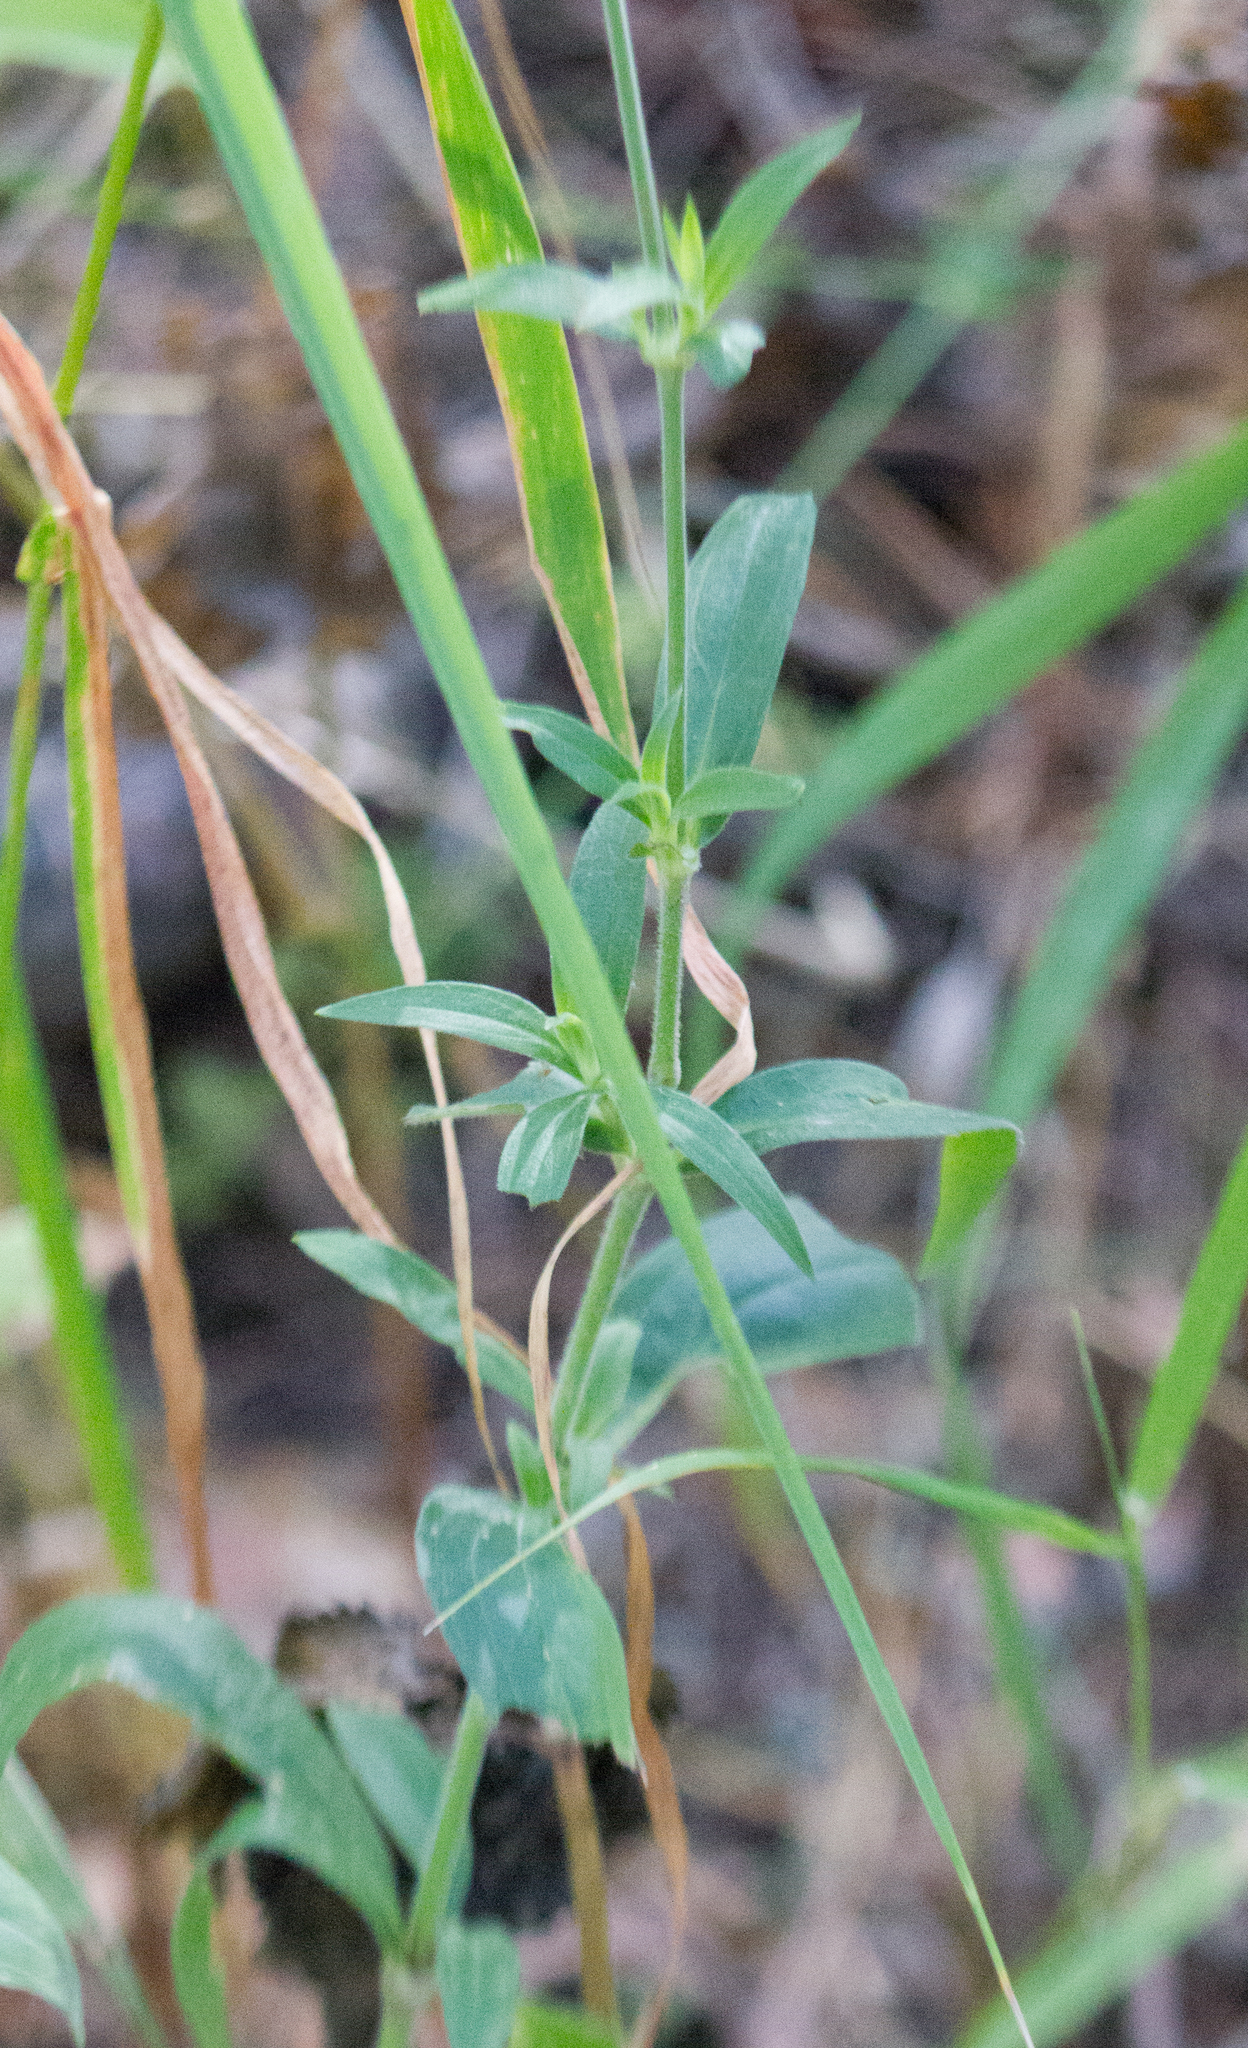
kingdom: Plantae
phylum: Tracheophyta
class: Magnoliopsida
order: Caryophyllales
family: Caryophyllaceae
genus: Silene
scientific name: Silene latifolia
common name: White campion
